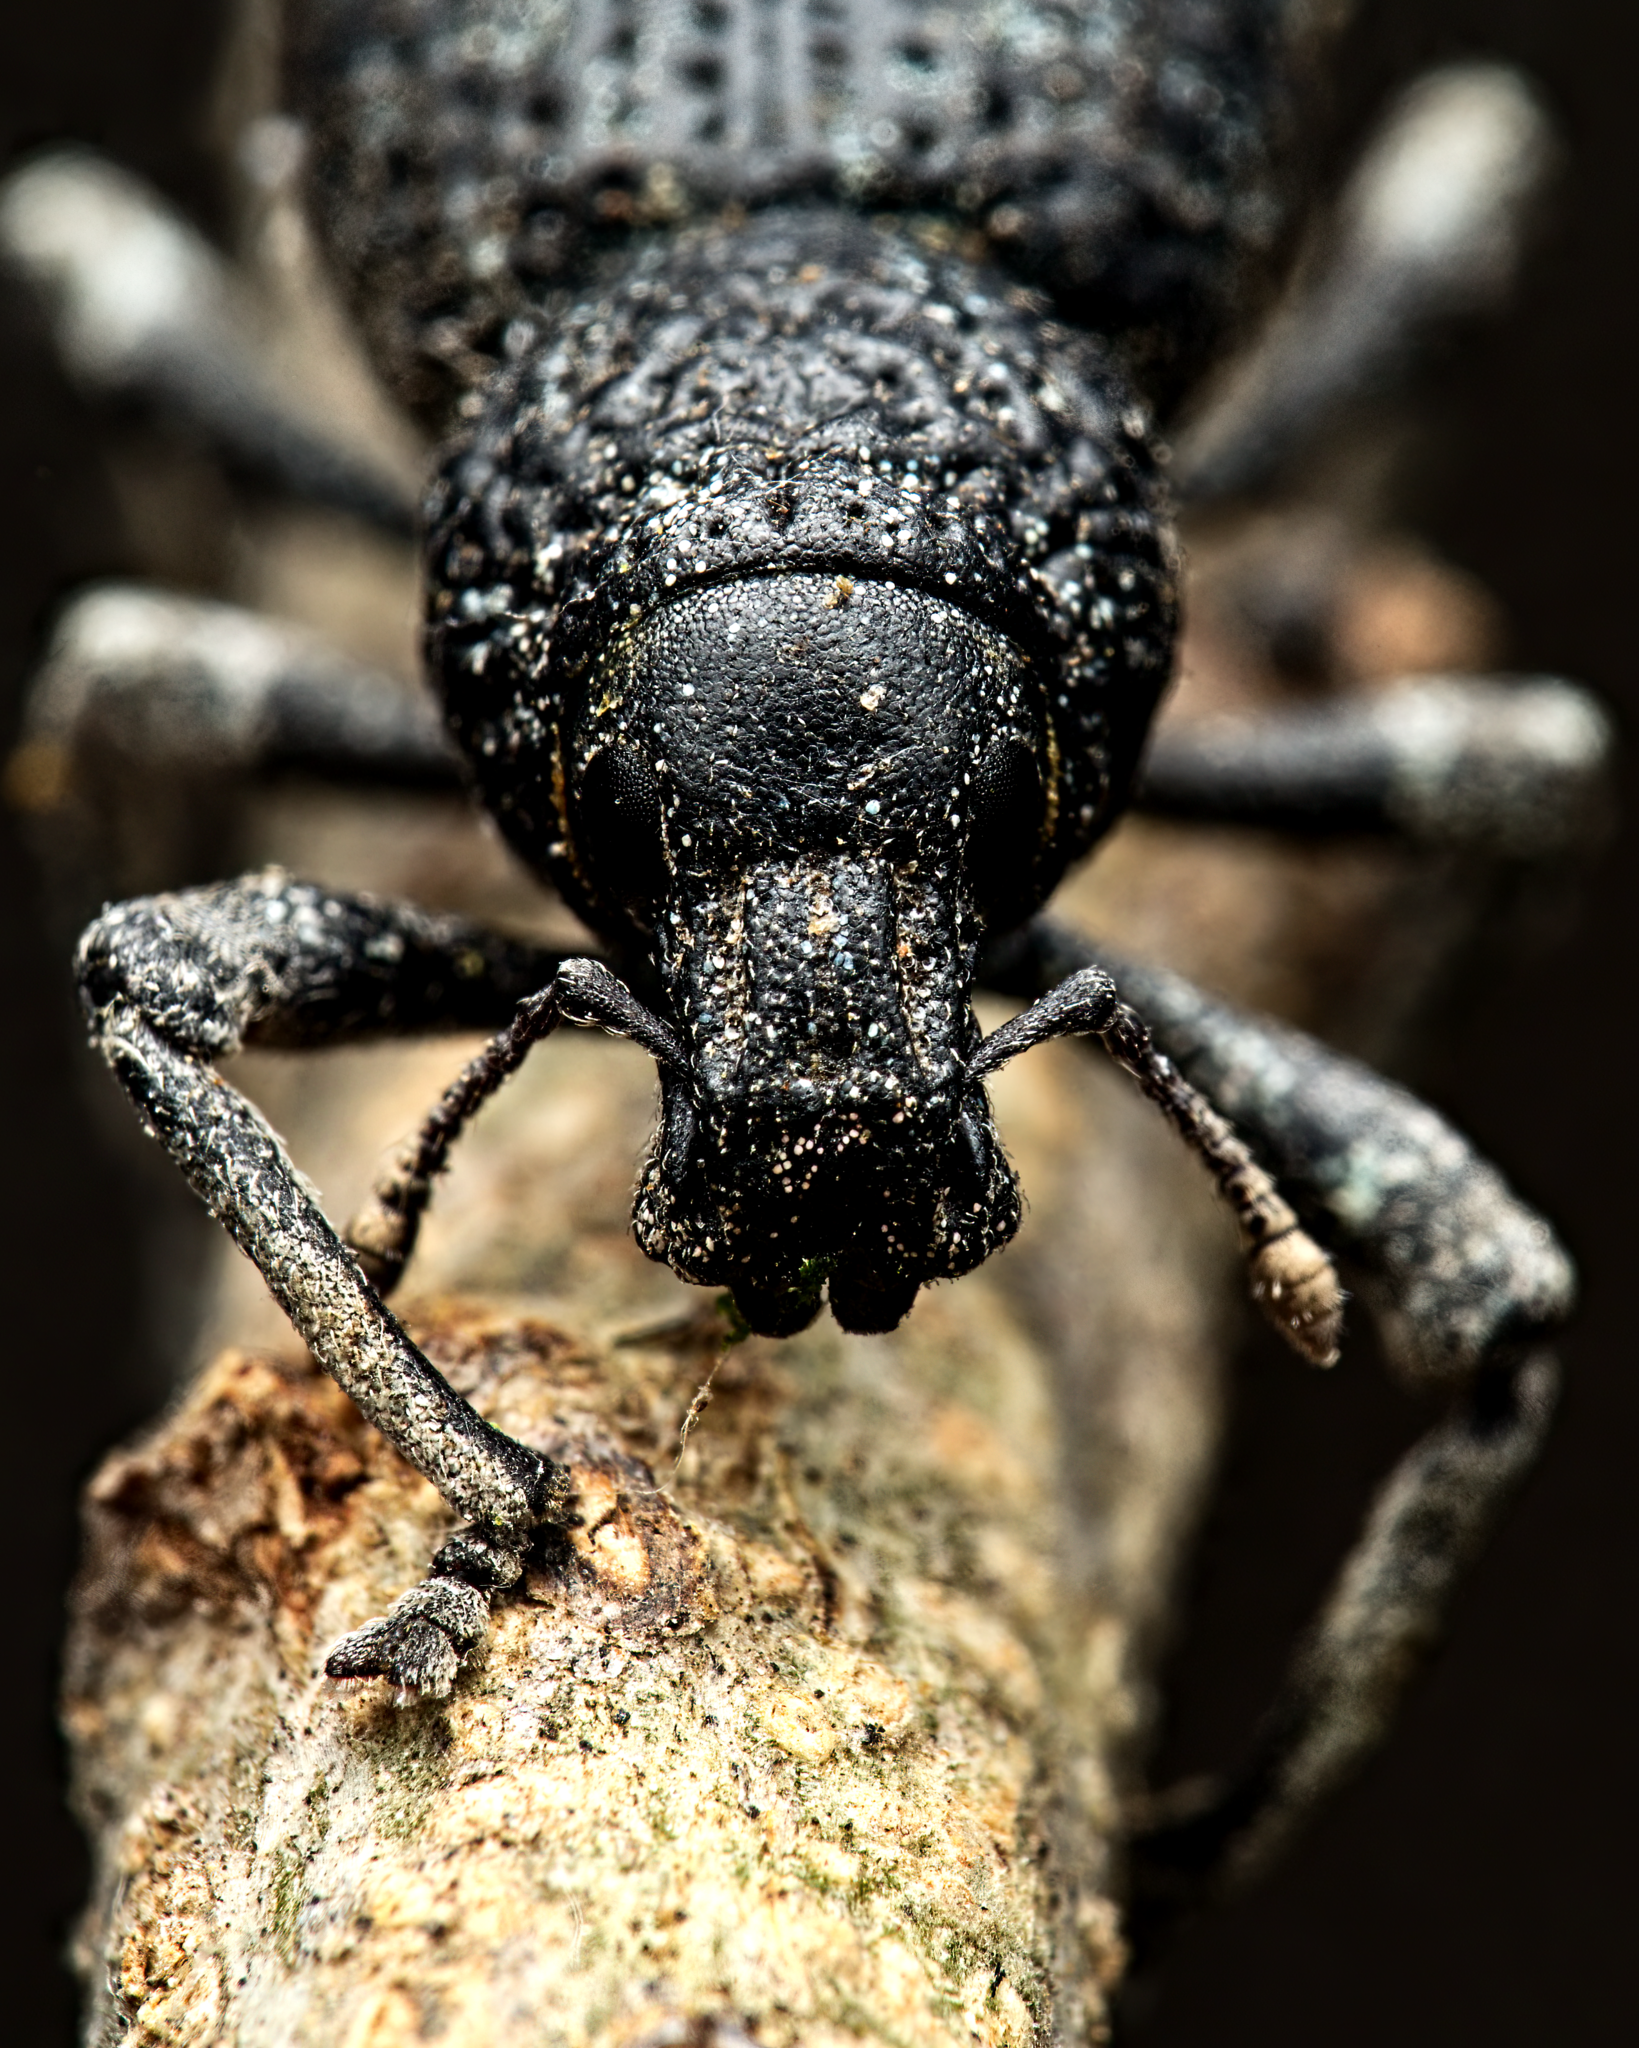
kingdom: Animalia
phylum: Arthropoda
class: Insecta
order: Coleoptera
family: Curculionidae
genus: Otiorhynchus
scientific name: Otiorhynchus sulcatus
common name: Black vine weevil
